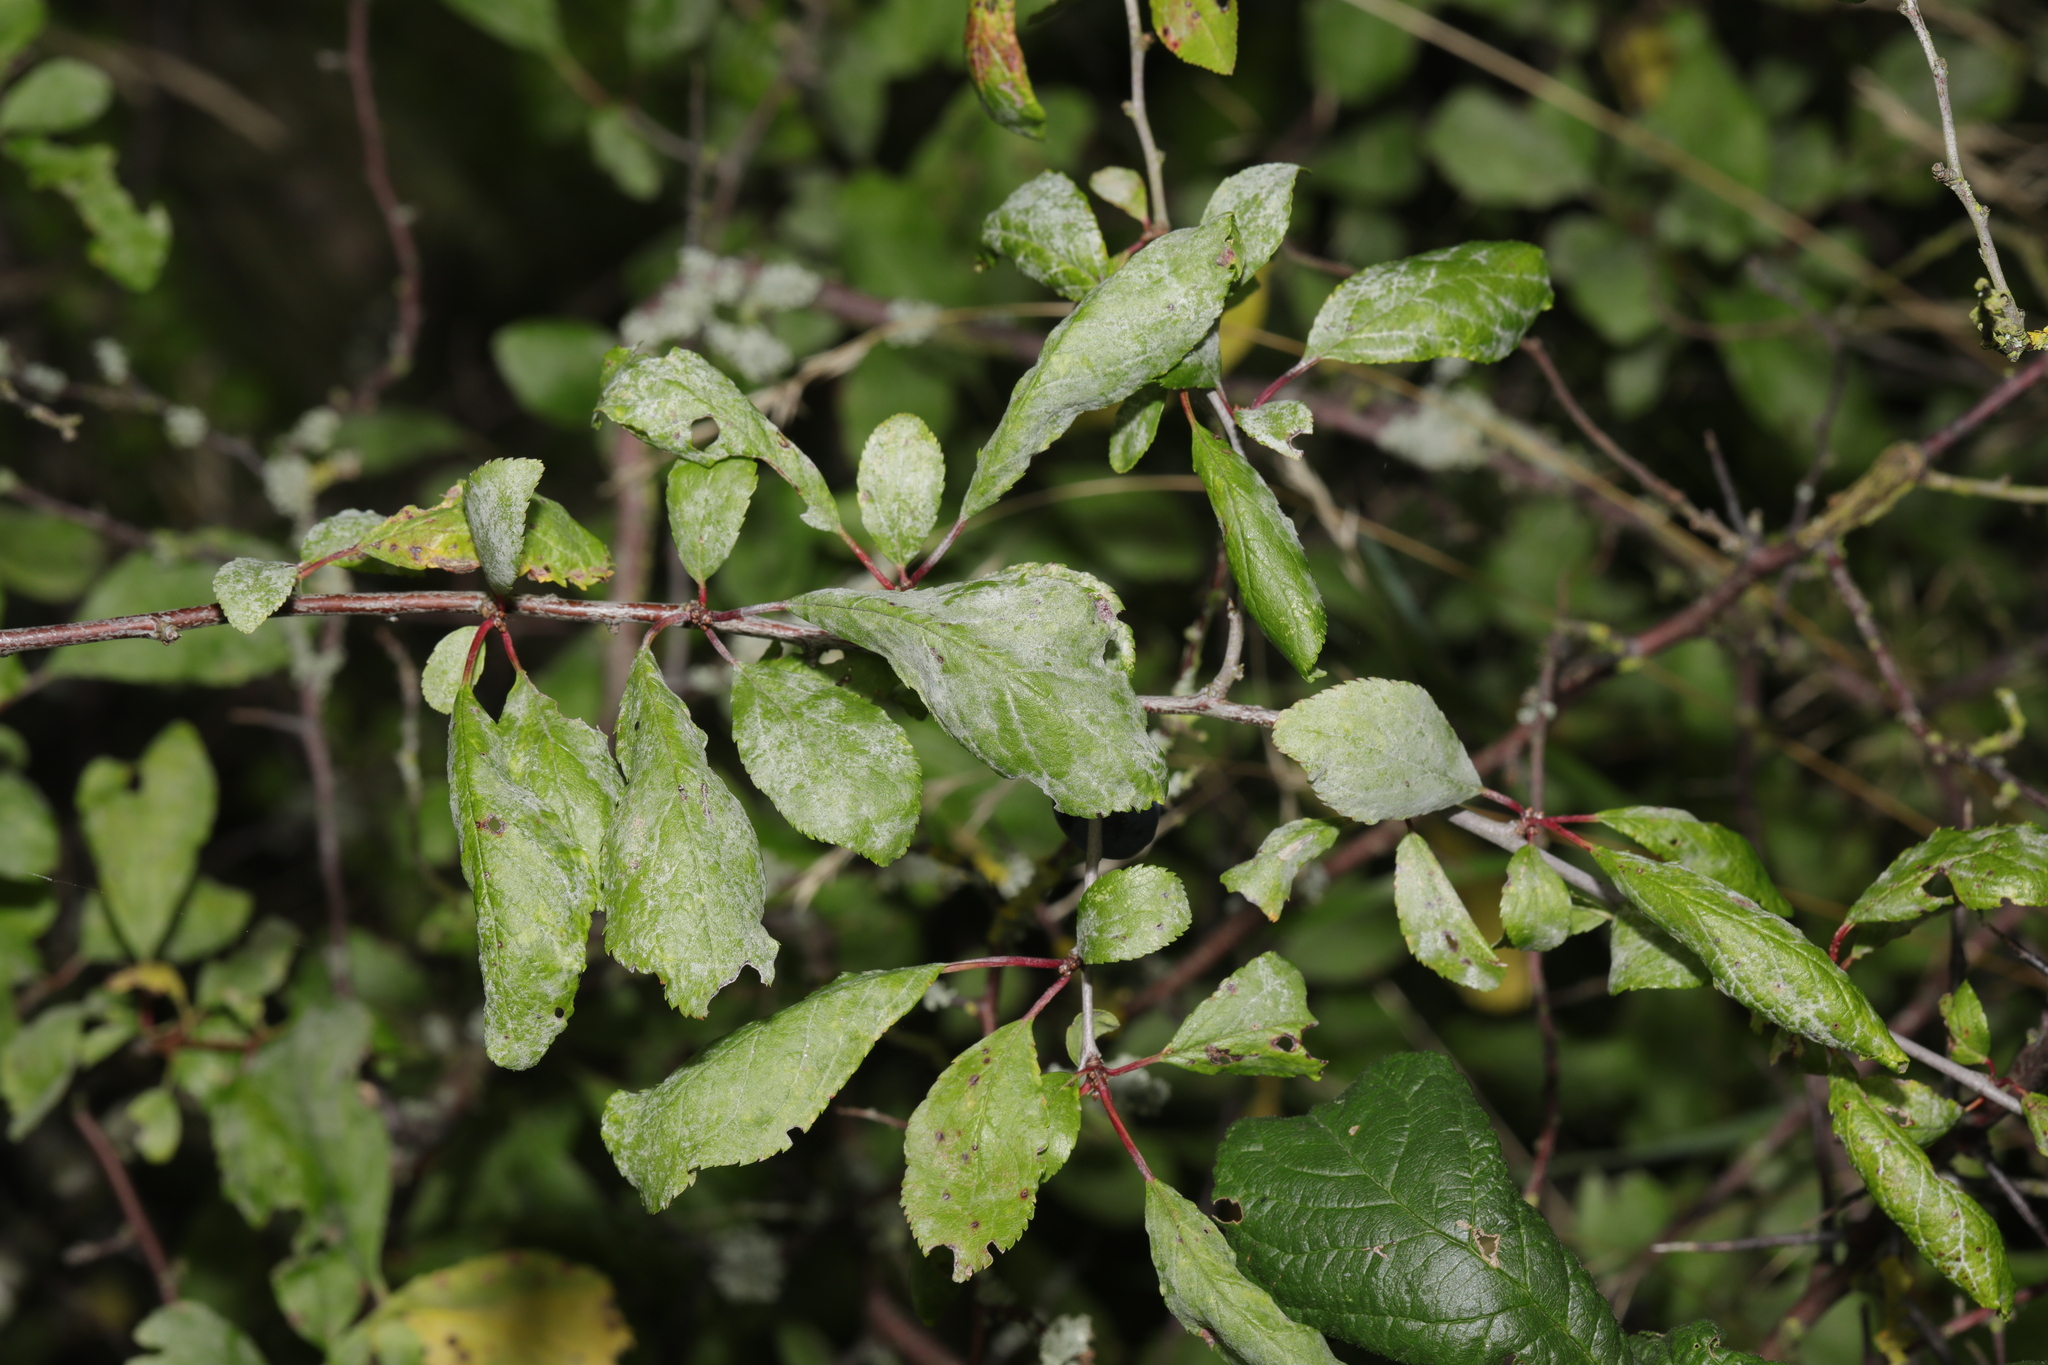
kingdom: Plantae
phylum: Tracheophyta
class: Magnoliopsida
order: Rosales
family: Rosaceae
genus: Prunus
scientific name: Prunus spinosa
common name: Blackthorn
